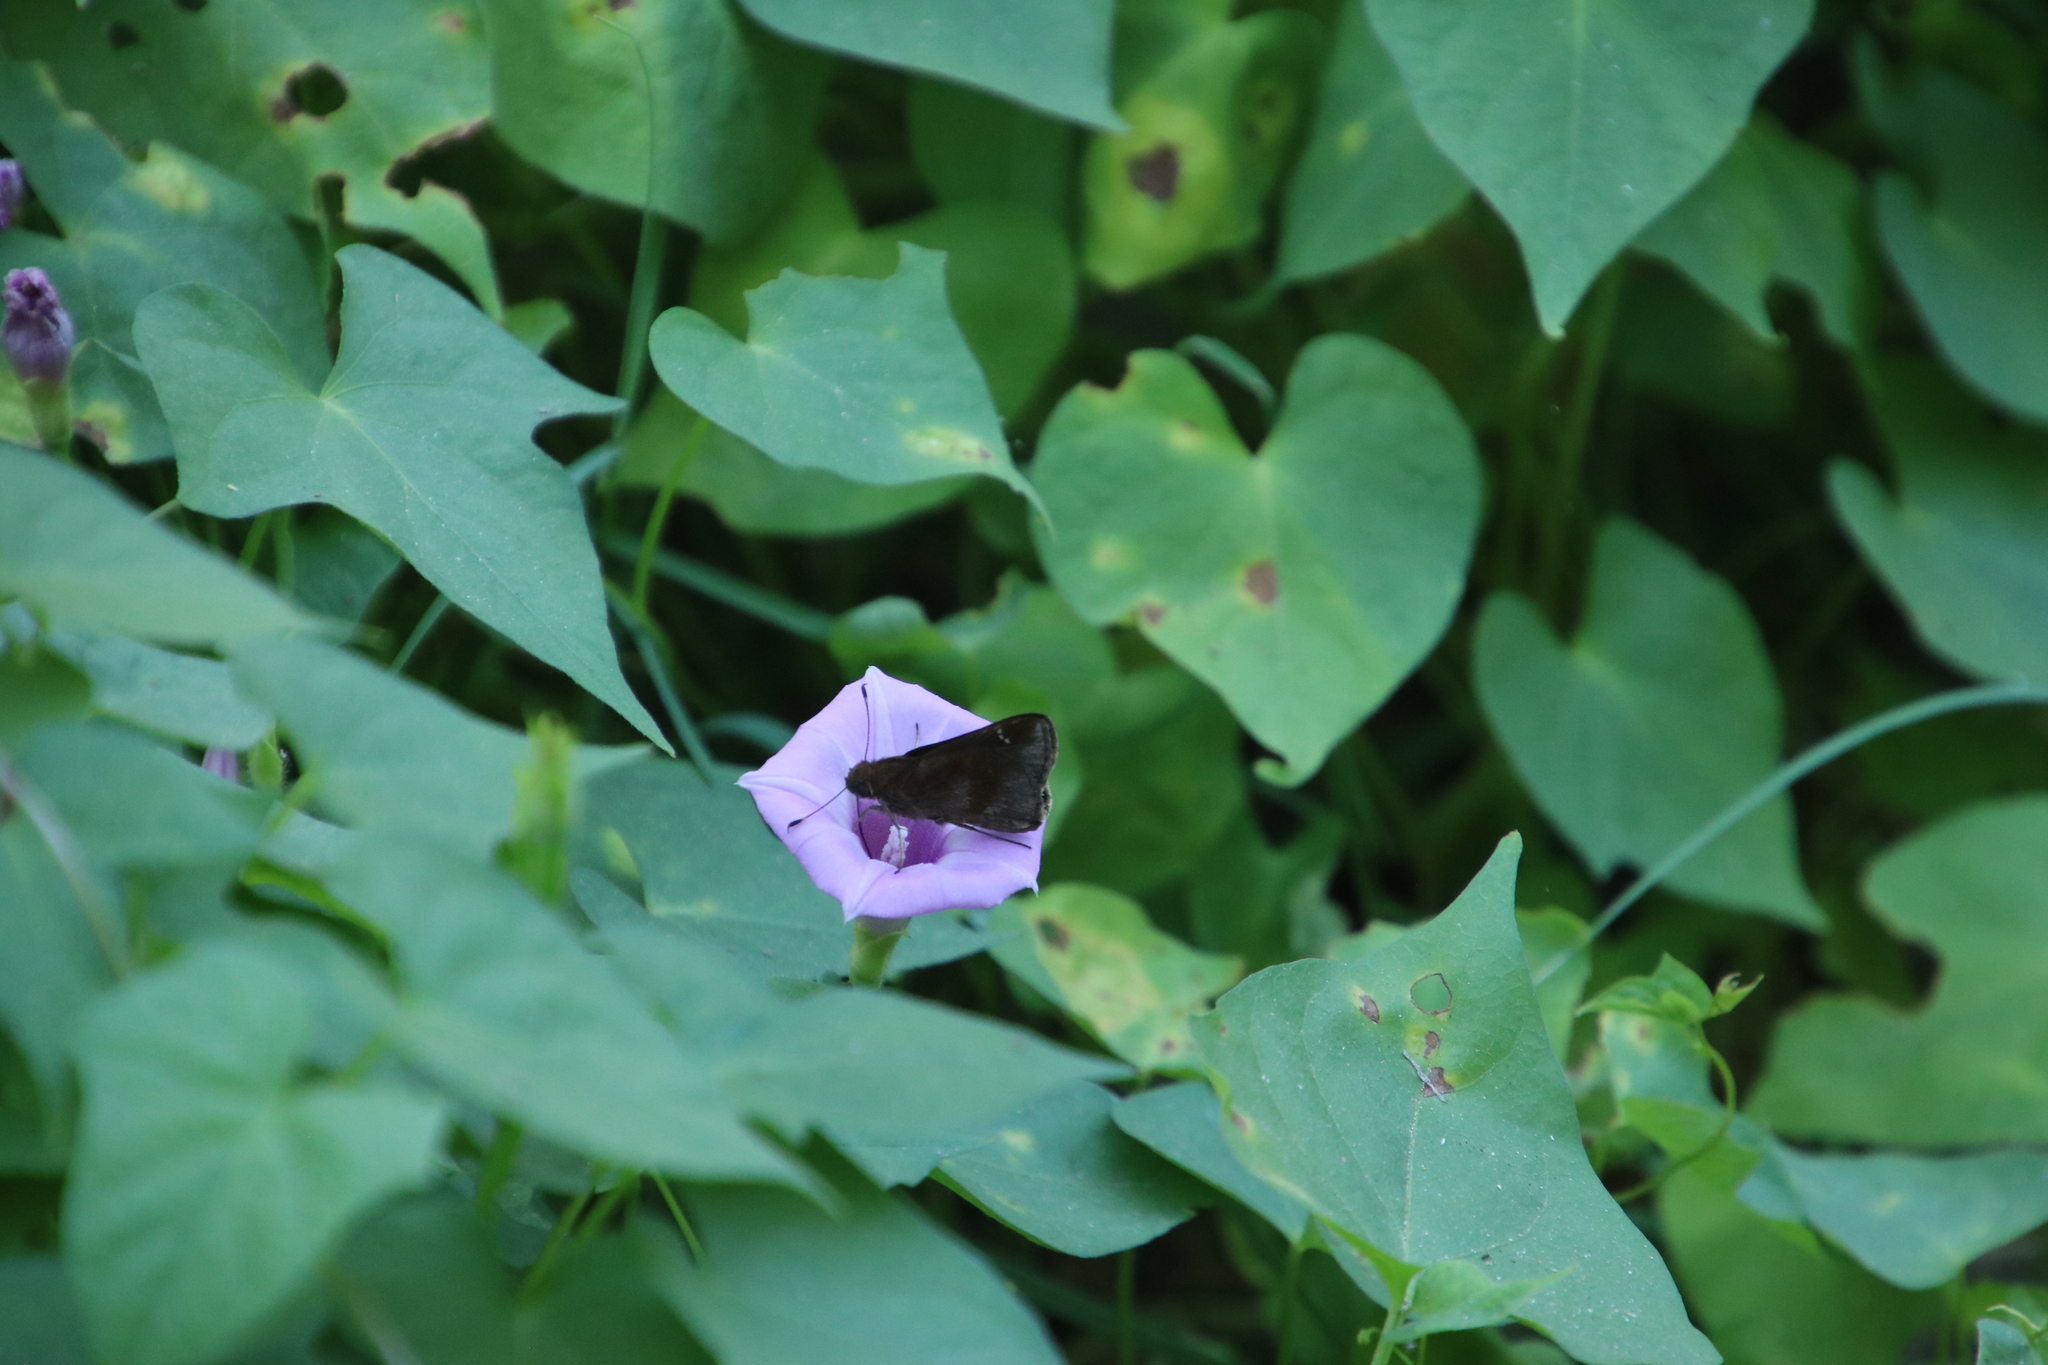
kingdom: Plantae
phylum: Tracheophyta
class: Magnoliopsida
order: Solanales
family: Convolvulaceae
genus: Ipomoea
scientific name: Ipomoea cordatotriloba
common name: Cotton morning glory
